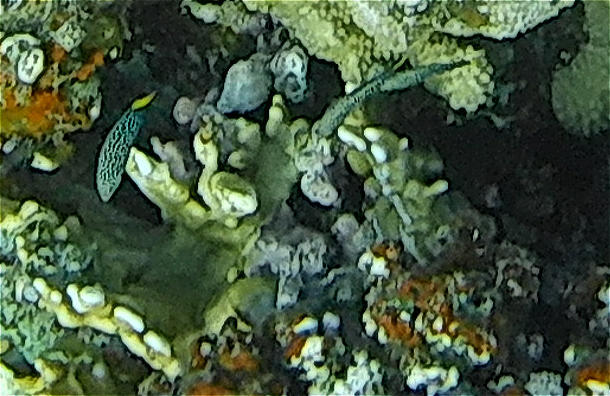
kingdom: Animalia
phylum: Chordata
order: Perciformes
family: Labridae
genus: Anampses
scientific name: Anampses meleagrides
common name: Yellowtail wrasse
